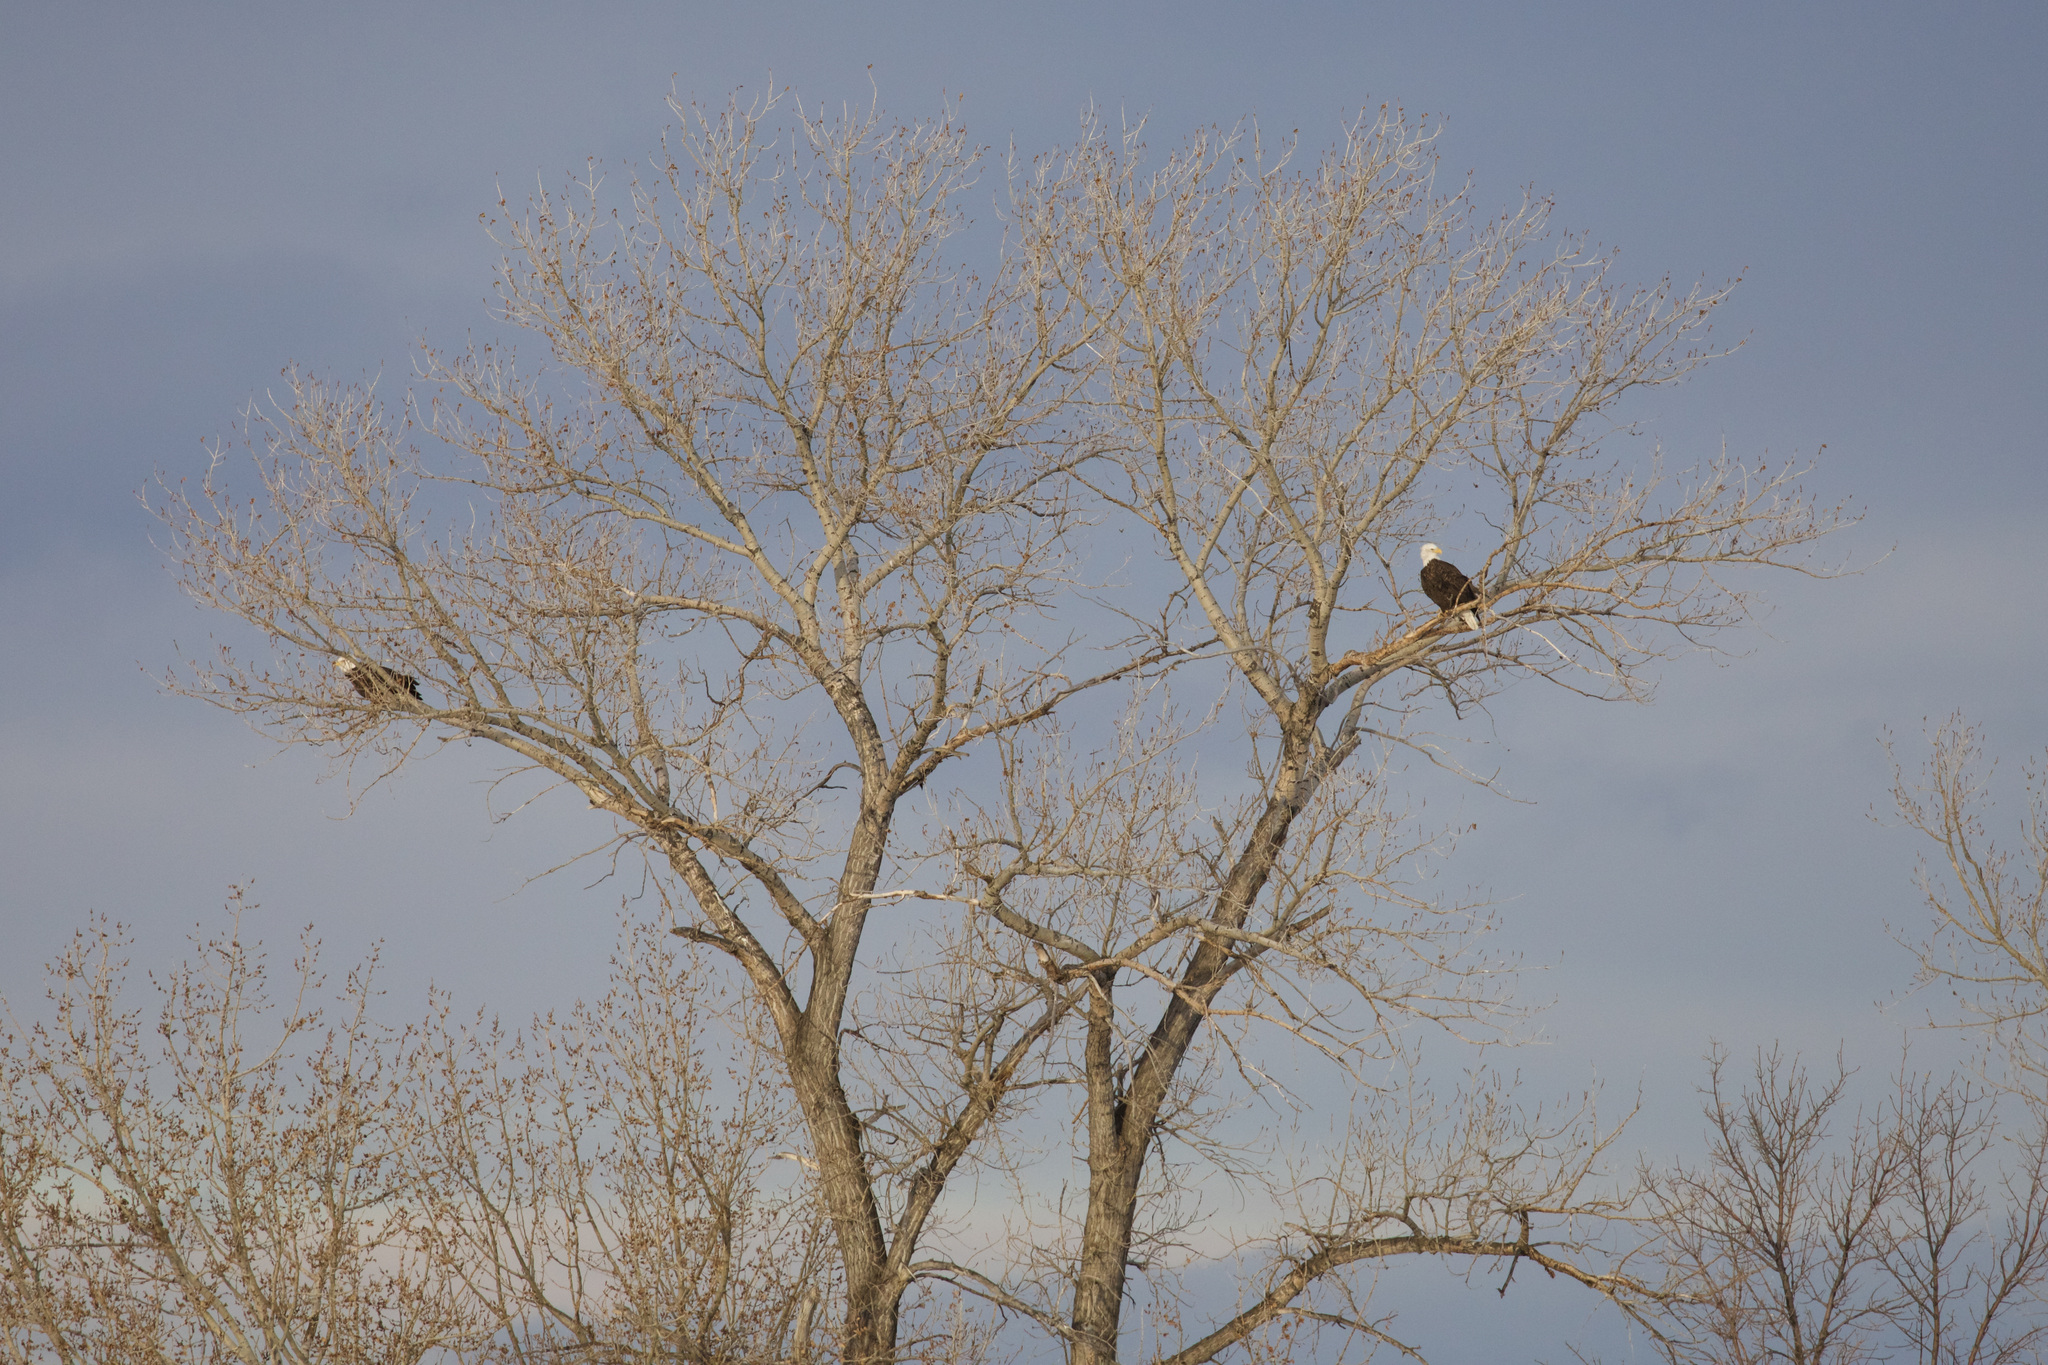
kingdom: Animalia
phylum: Chordata
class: Aves
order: Accipitriformes
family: Accipitridae
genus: Haliaeetus
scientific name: Haliaeetus leucocephalus
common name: Bald eagle
